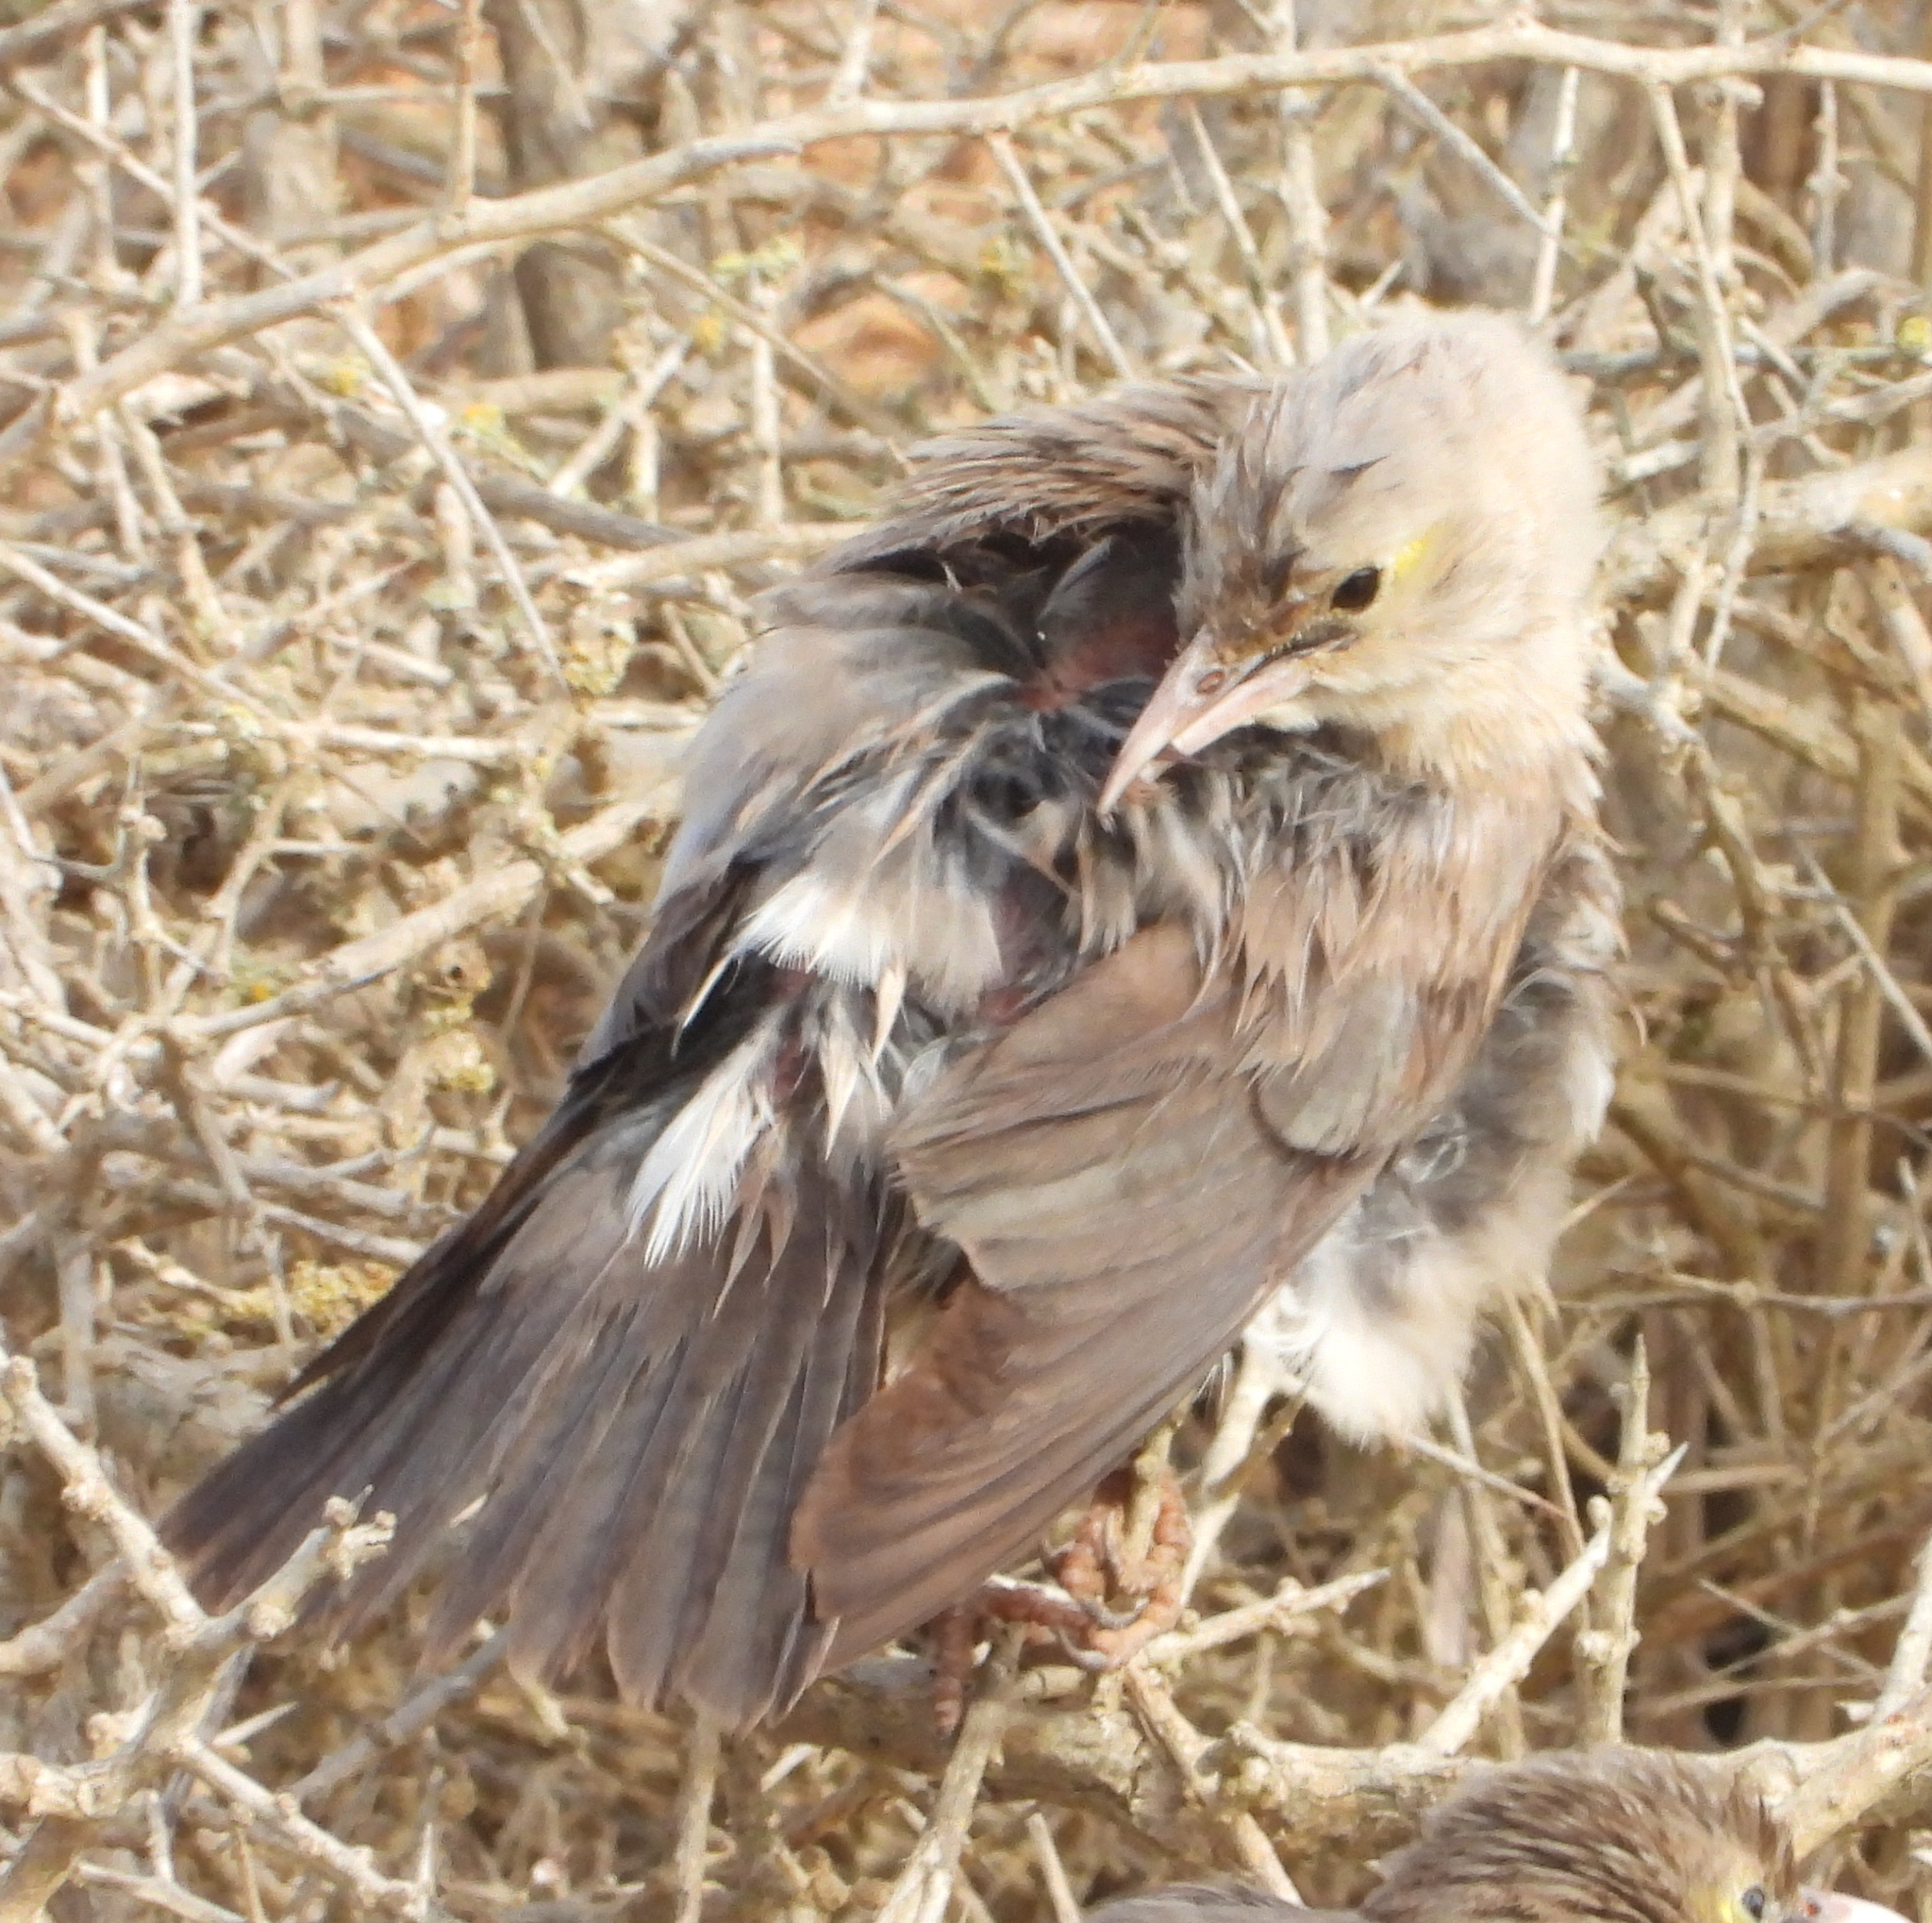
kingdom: Animalia
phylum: Chordata
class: Aves
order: Passeriformes
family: Sturnidae
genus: Creatophora
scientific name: Creatophora cinerea
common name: Wattled starling
